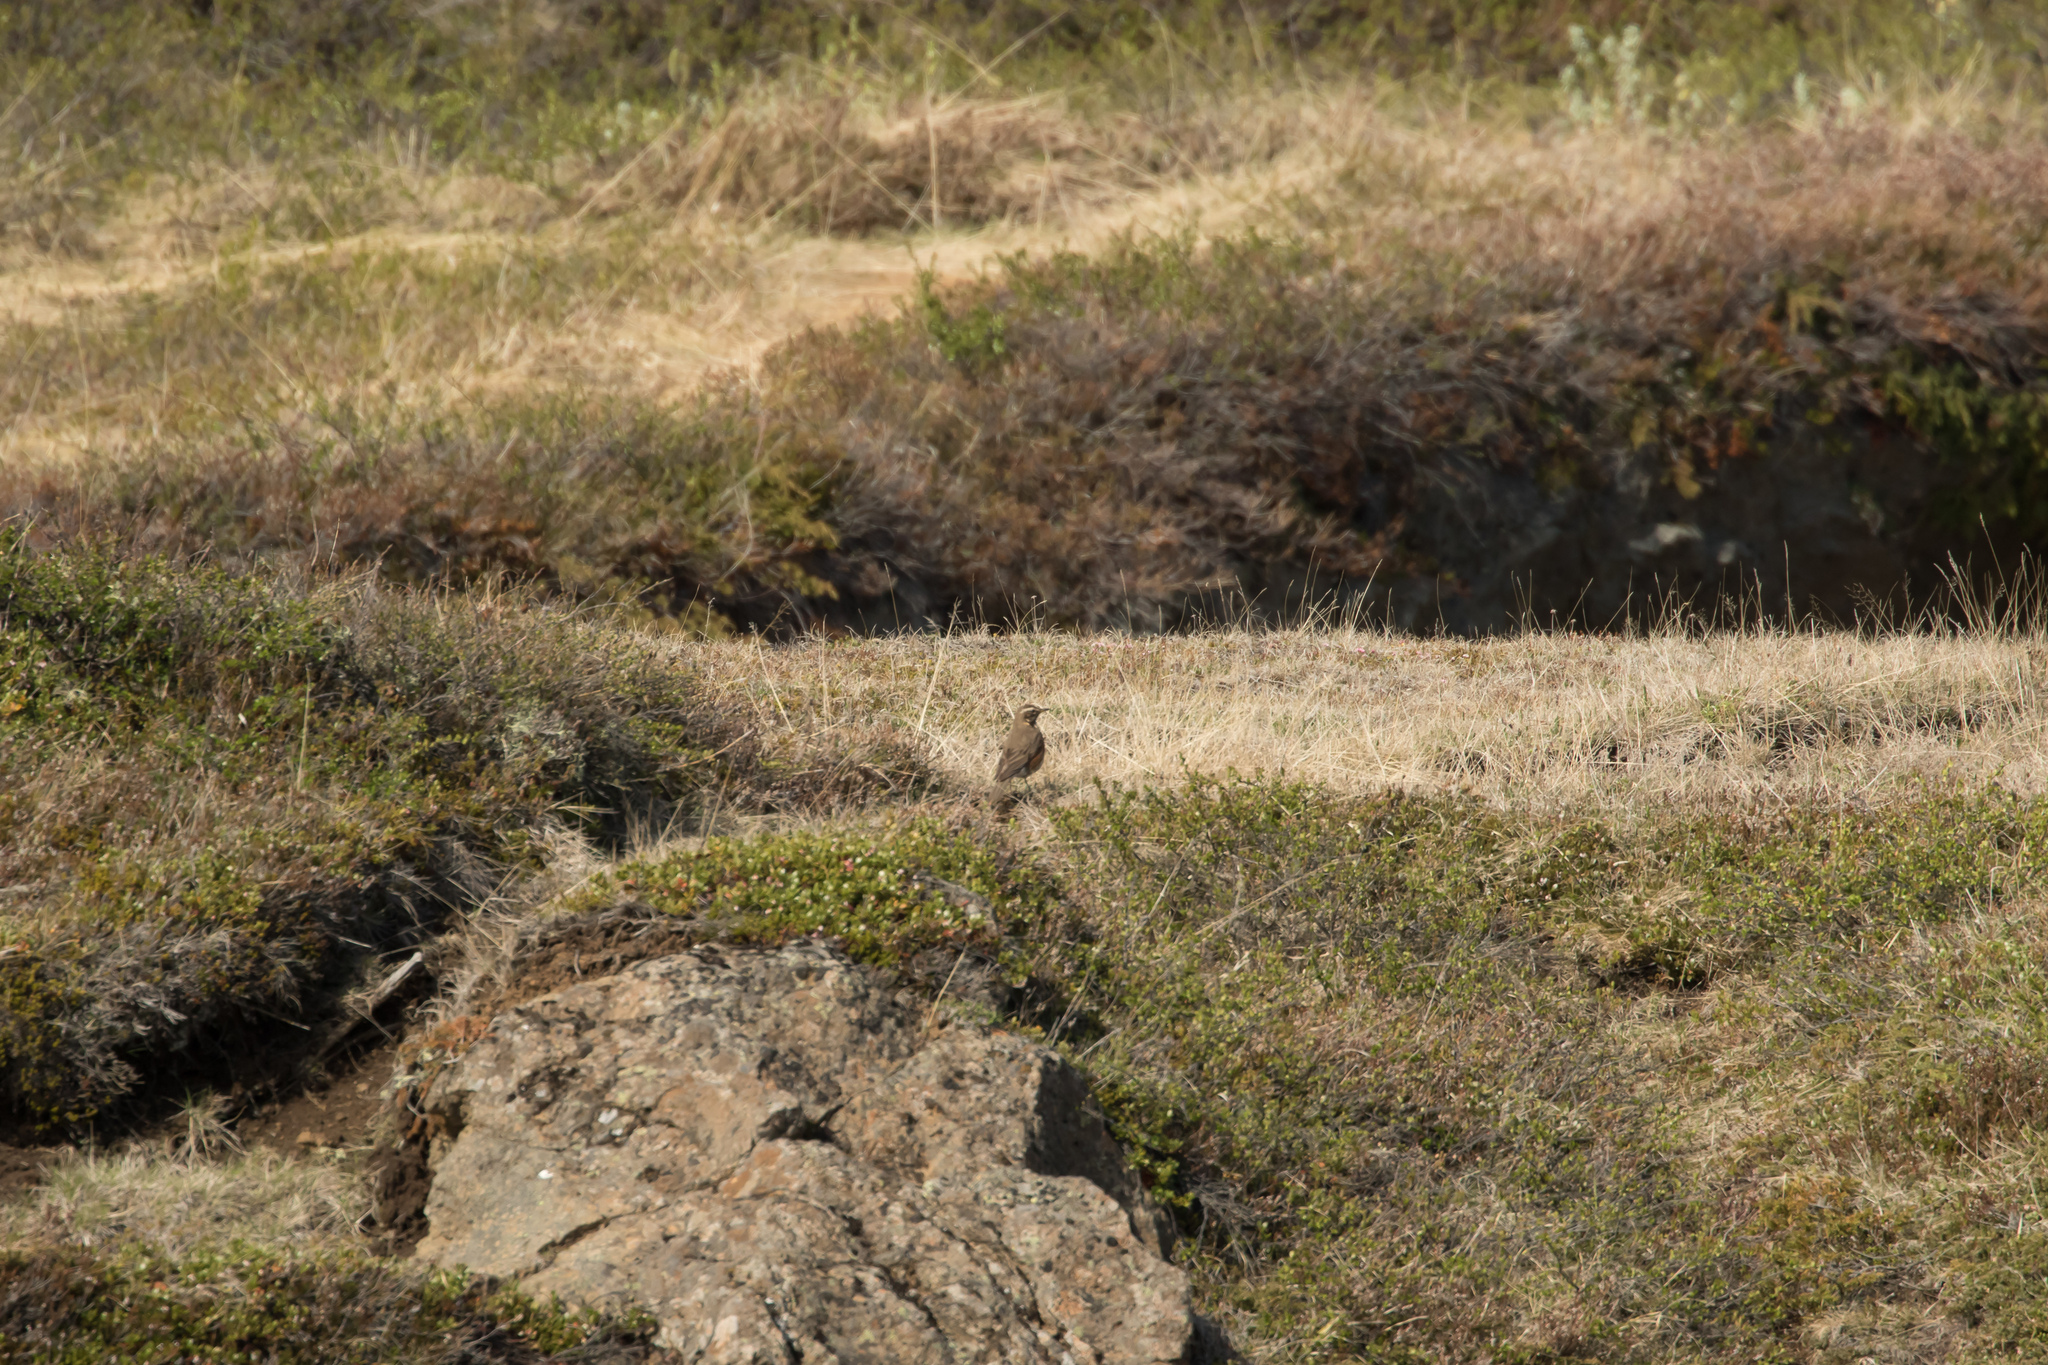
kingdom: Animalia
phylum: Chordata
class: Aves
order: Passeriformes
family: Turdidae
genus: Turdus
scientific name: Turdus iliacus
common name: Redwing
